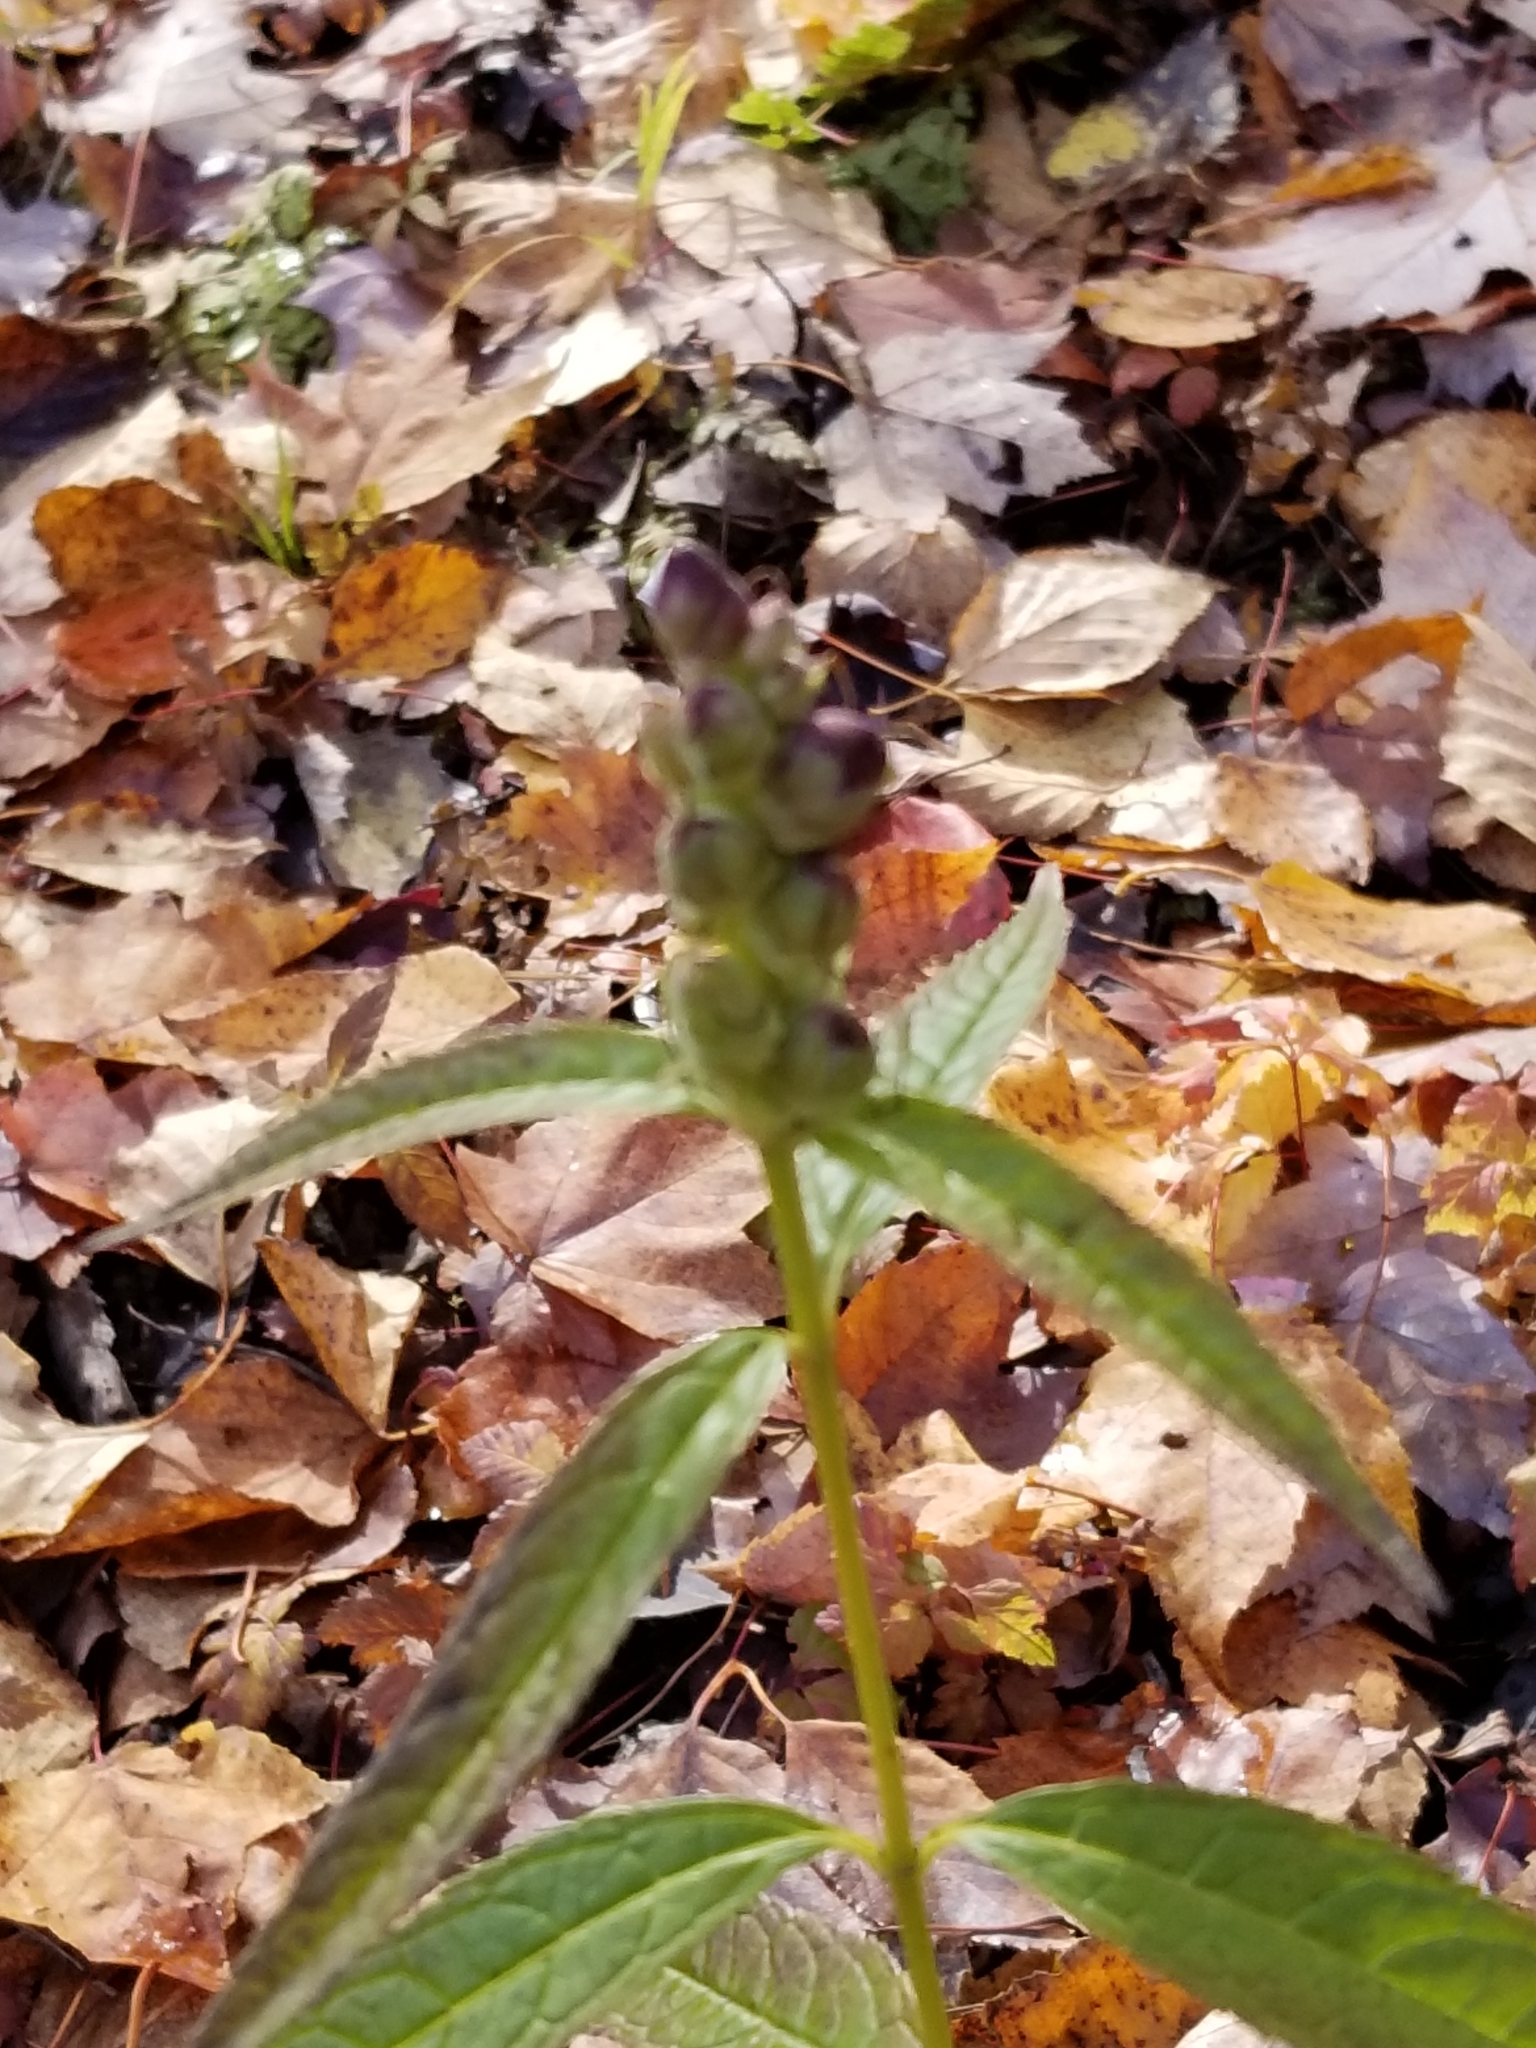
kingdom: Plantae
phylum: Tracheophyta
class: Magnoliopsida
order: Lamiales
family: Plantaginaceae
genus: Chelone
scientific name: Chelone glabra
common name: Snakehead
